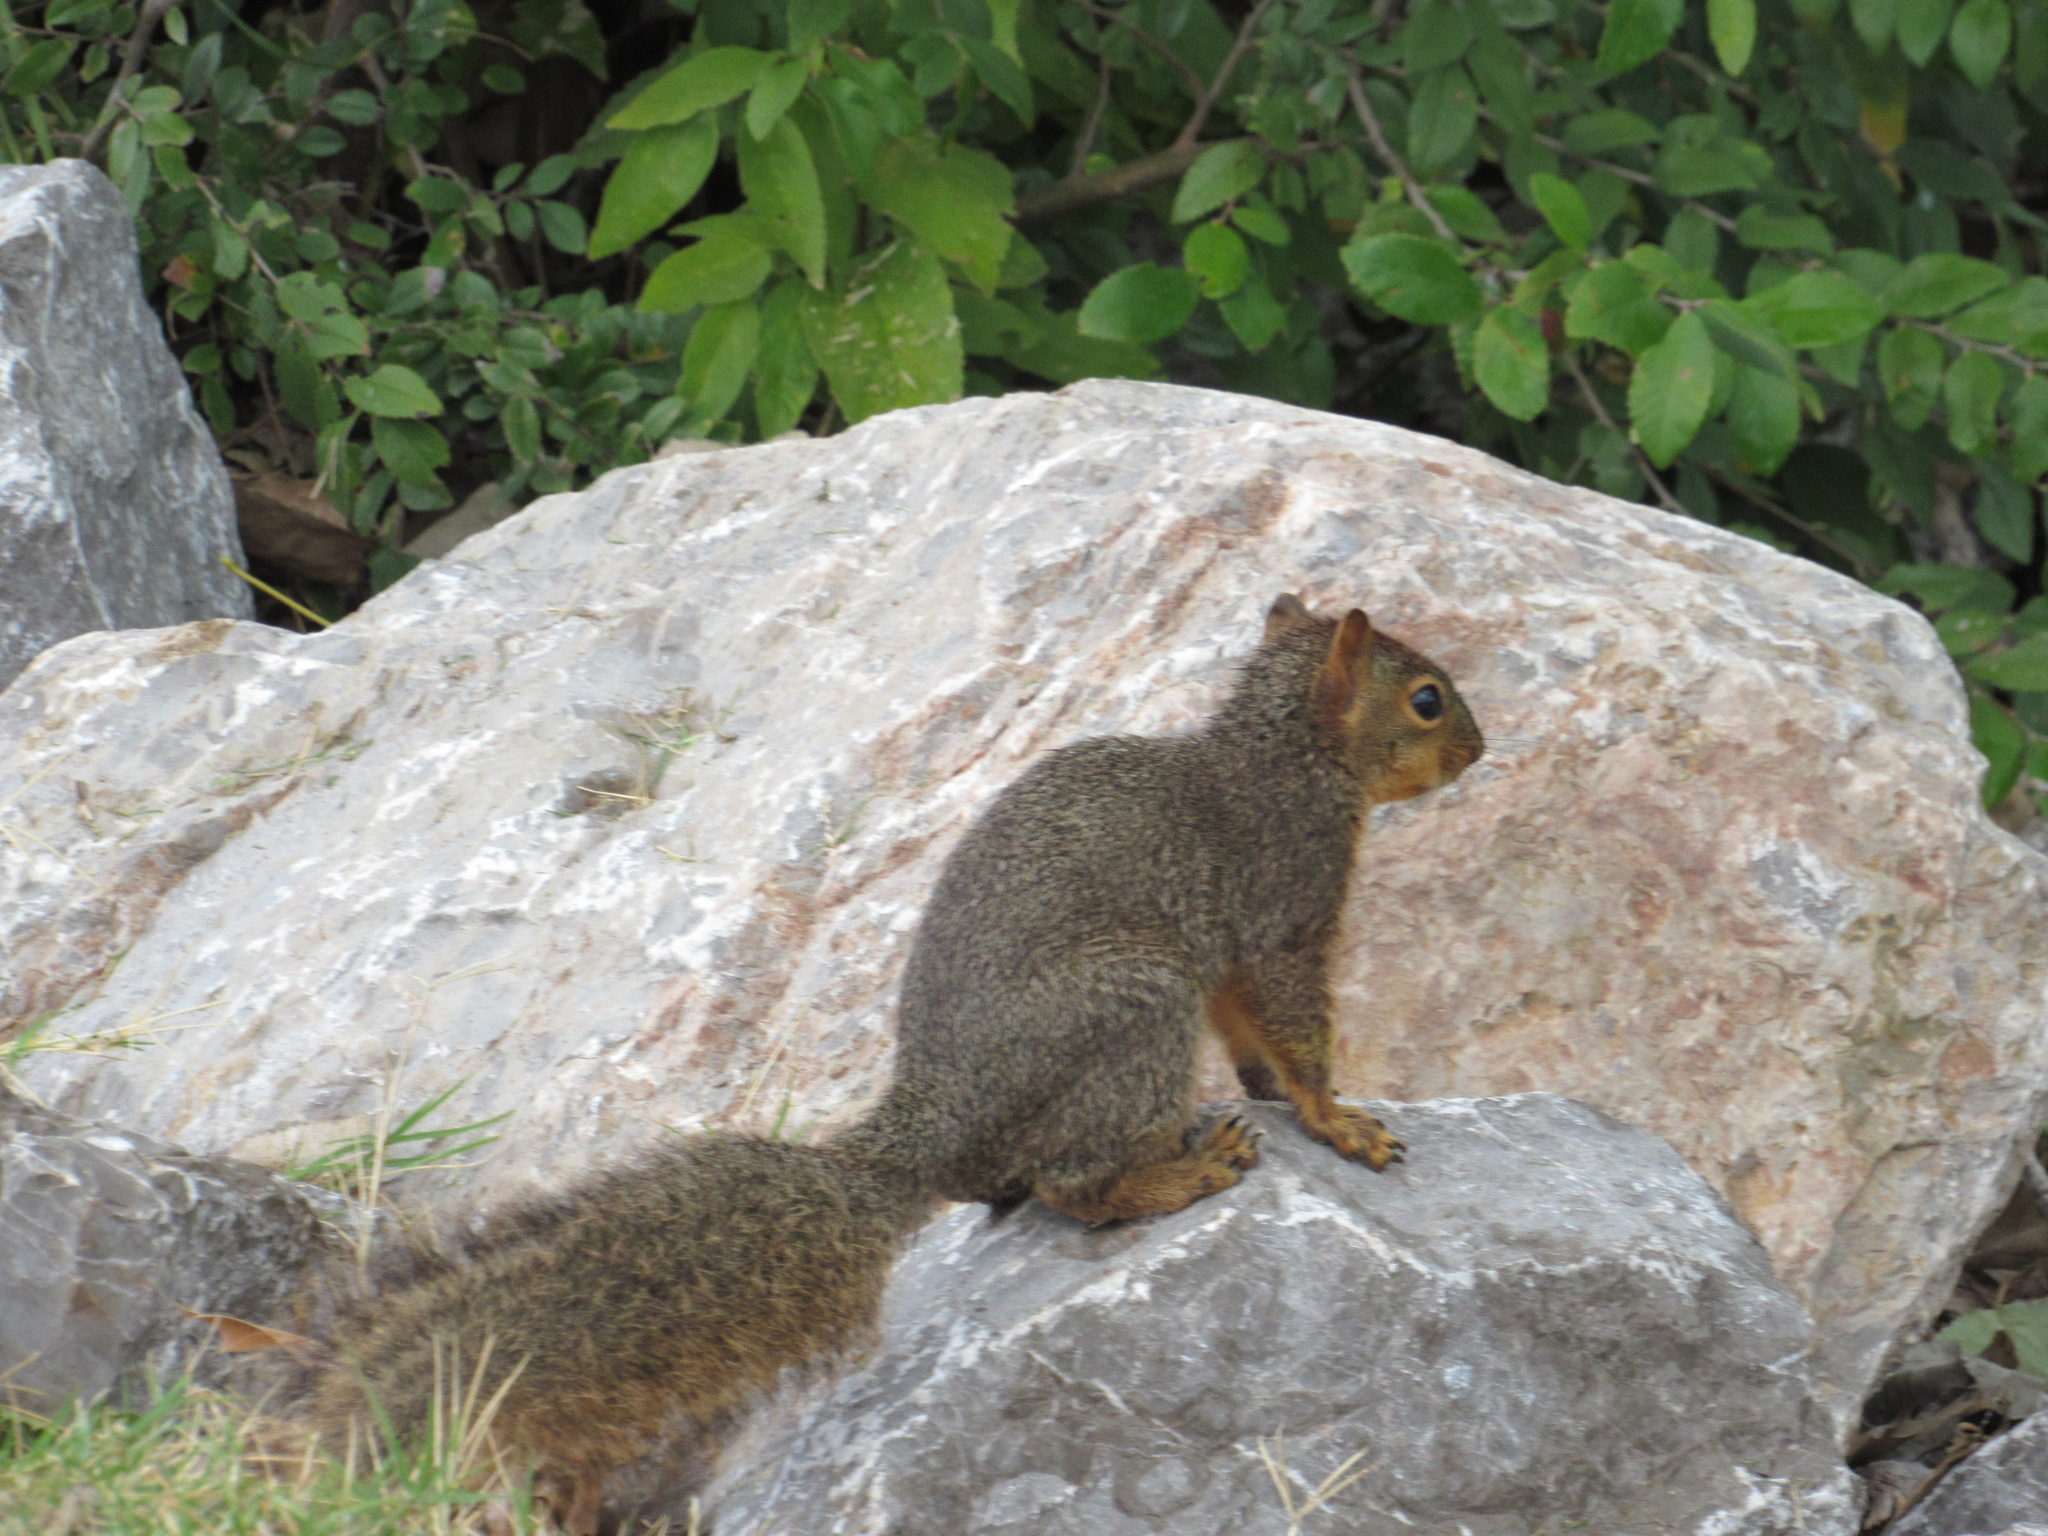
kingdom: Animalia
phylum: Chordata
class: Mammalia
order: Rodentia
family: Sciuridae
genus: Sciurus
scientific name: Sciurus niger
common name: Fox squirrel
